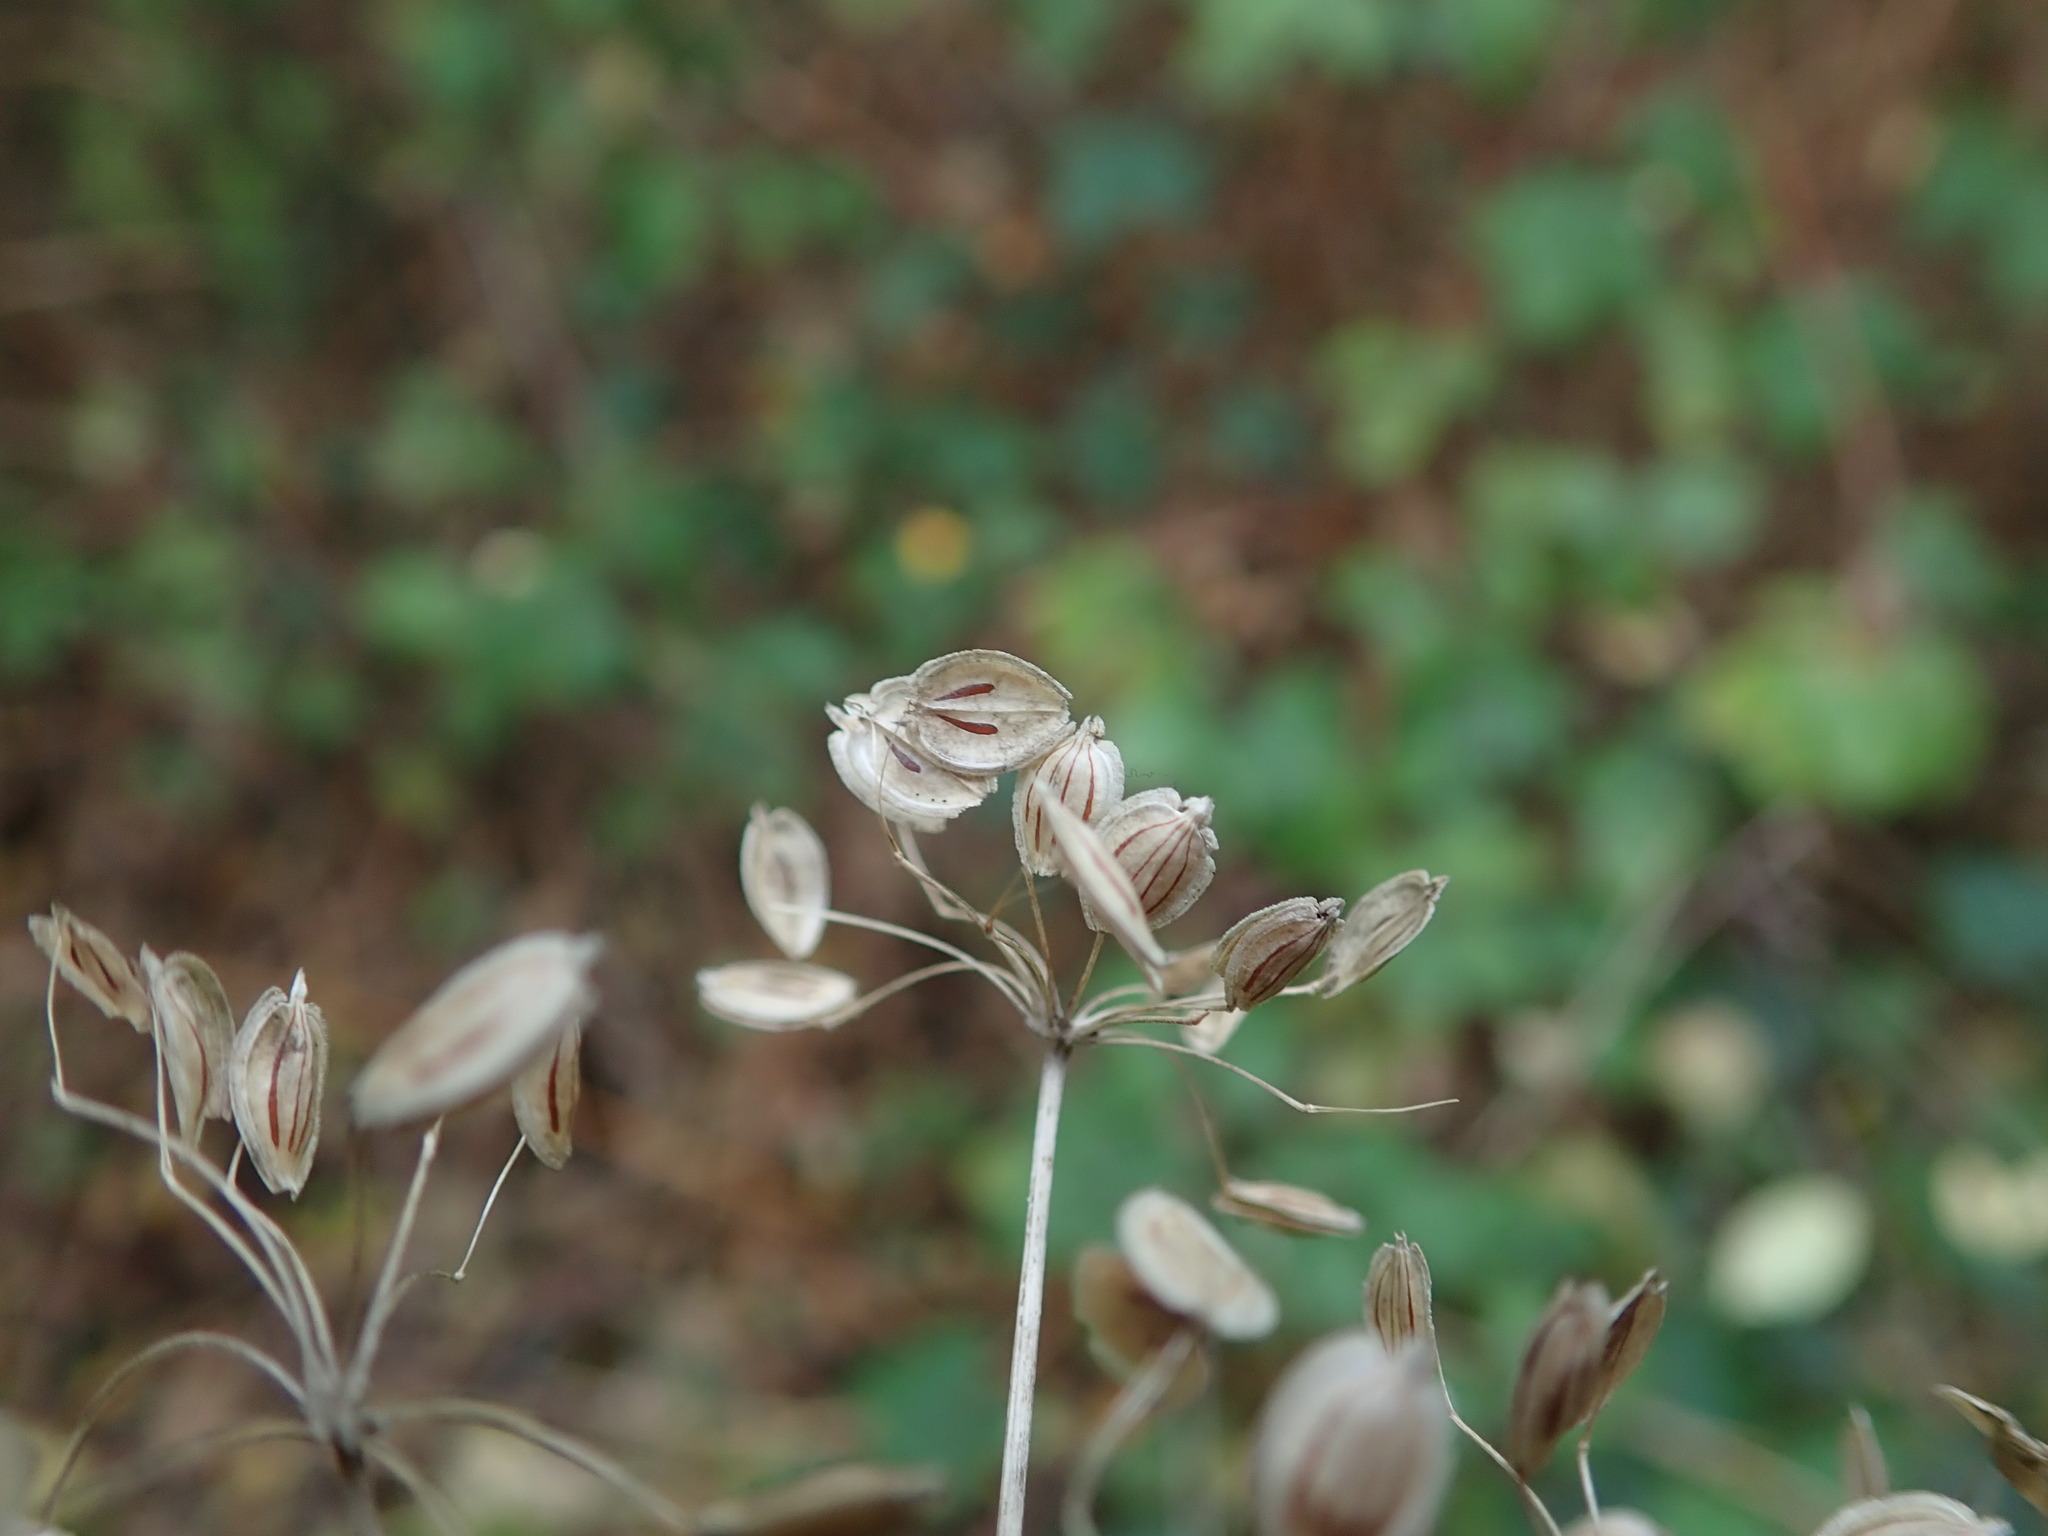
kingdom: Plantae
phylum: Tracheophyta
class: Magnoliopsida
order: Apiales
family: Apiaceae
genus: Heracleum
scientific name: Heracleum sphondylium
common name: Hogweed
